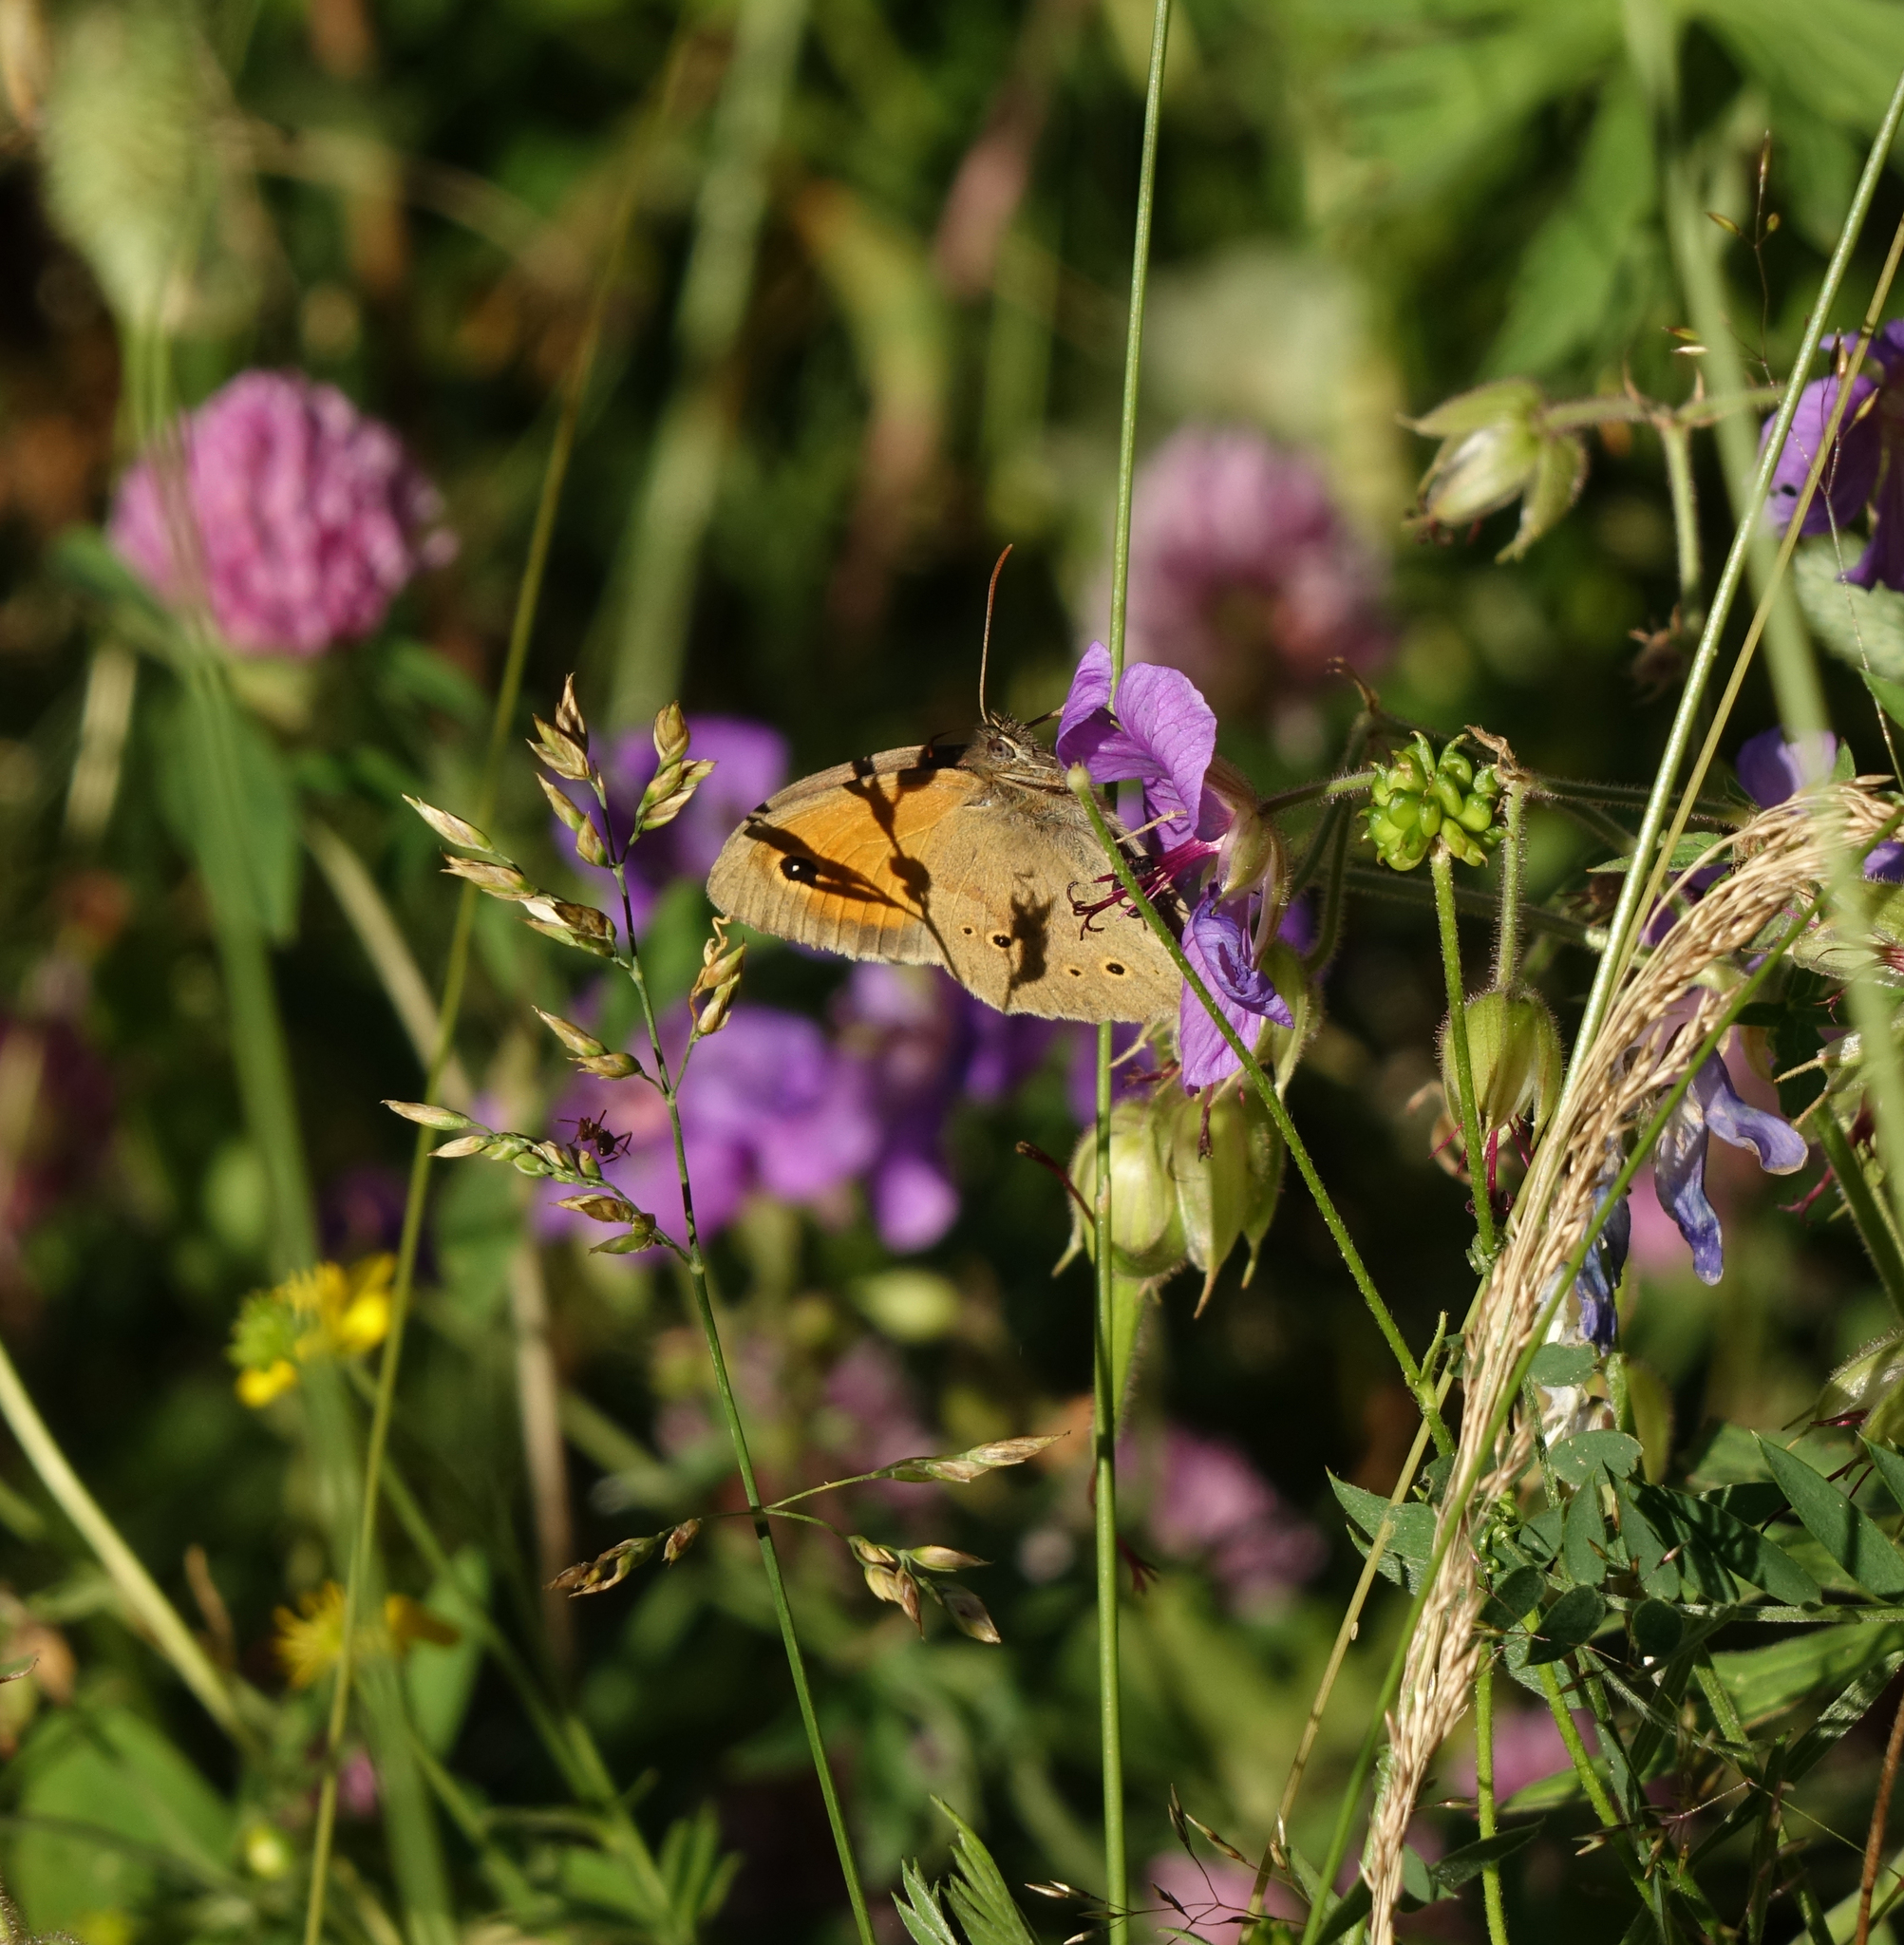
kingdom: Animalia
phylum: Arthropoda
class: Insecta
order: Lepidoptera
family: Nymphalidae
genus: Maniola
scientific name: Maniola jurtina
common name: Meadow brown
